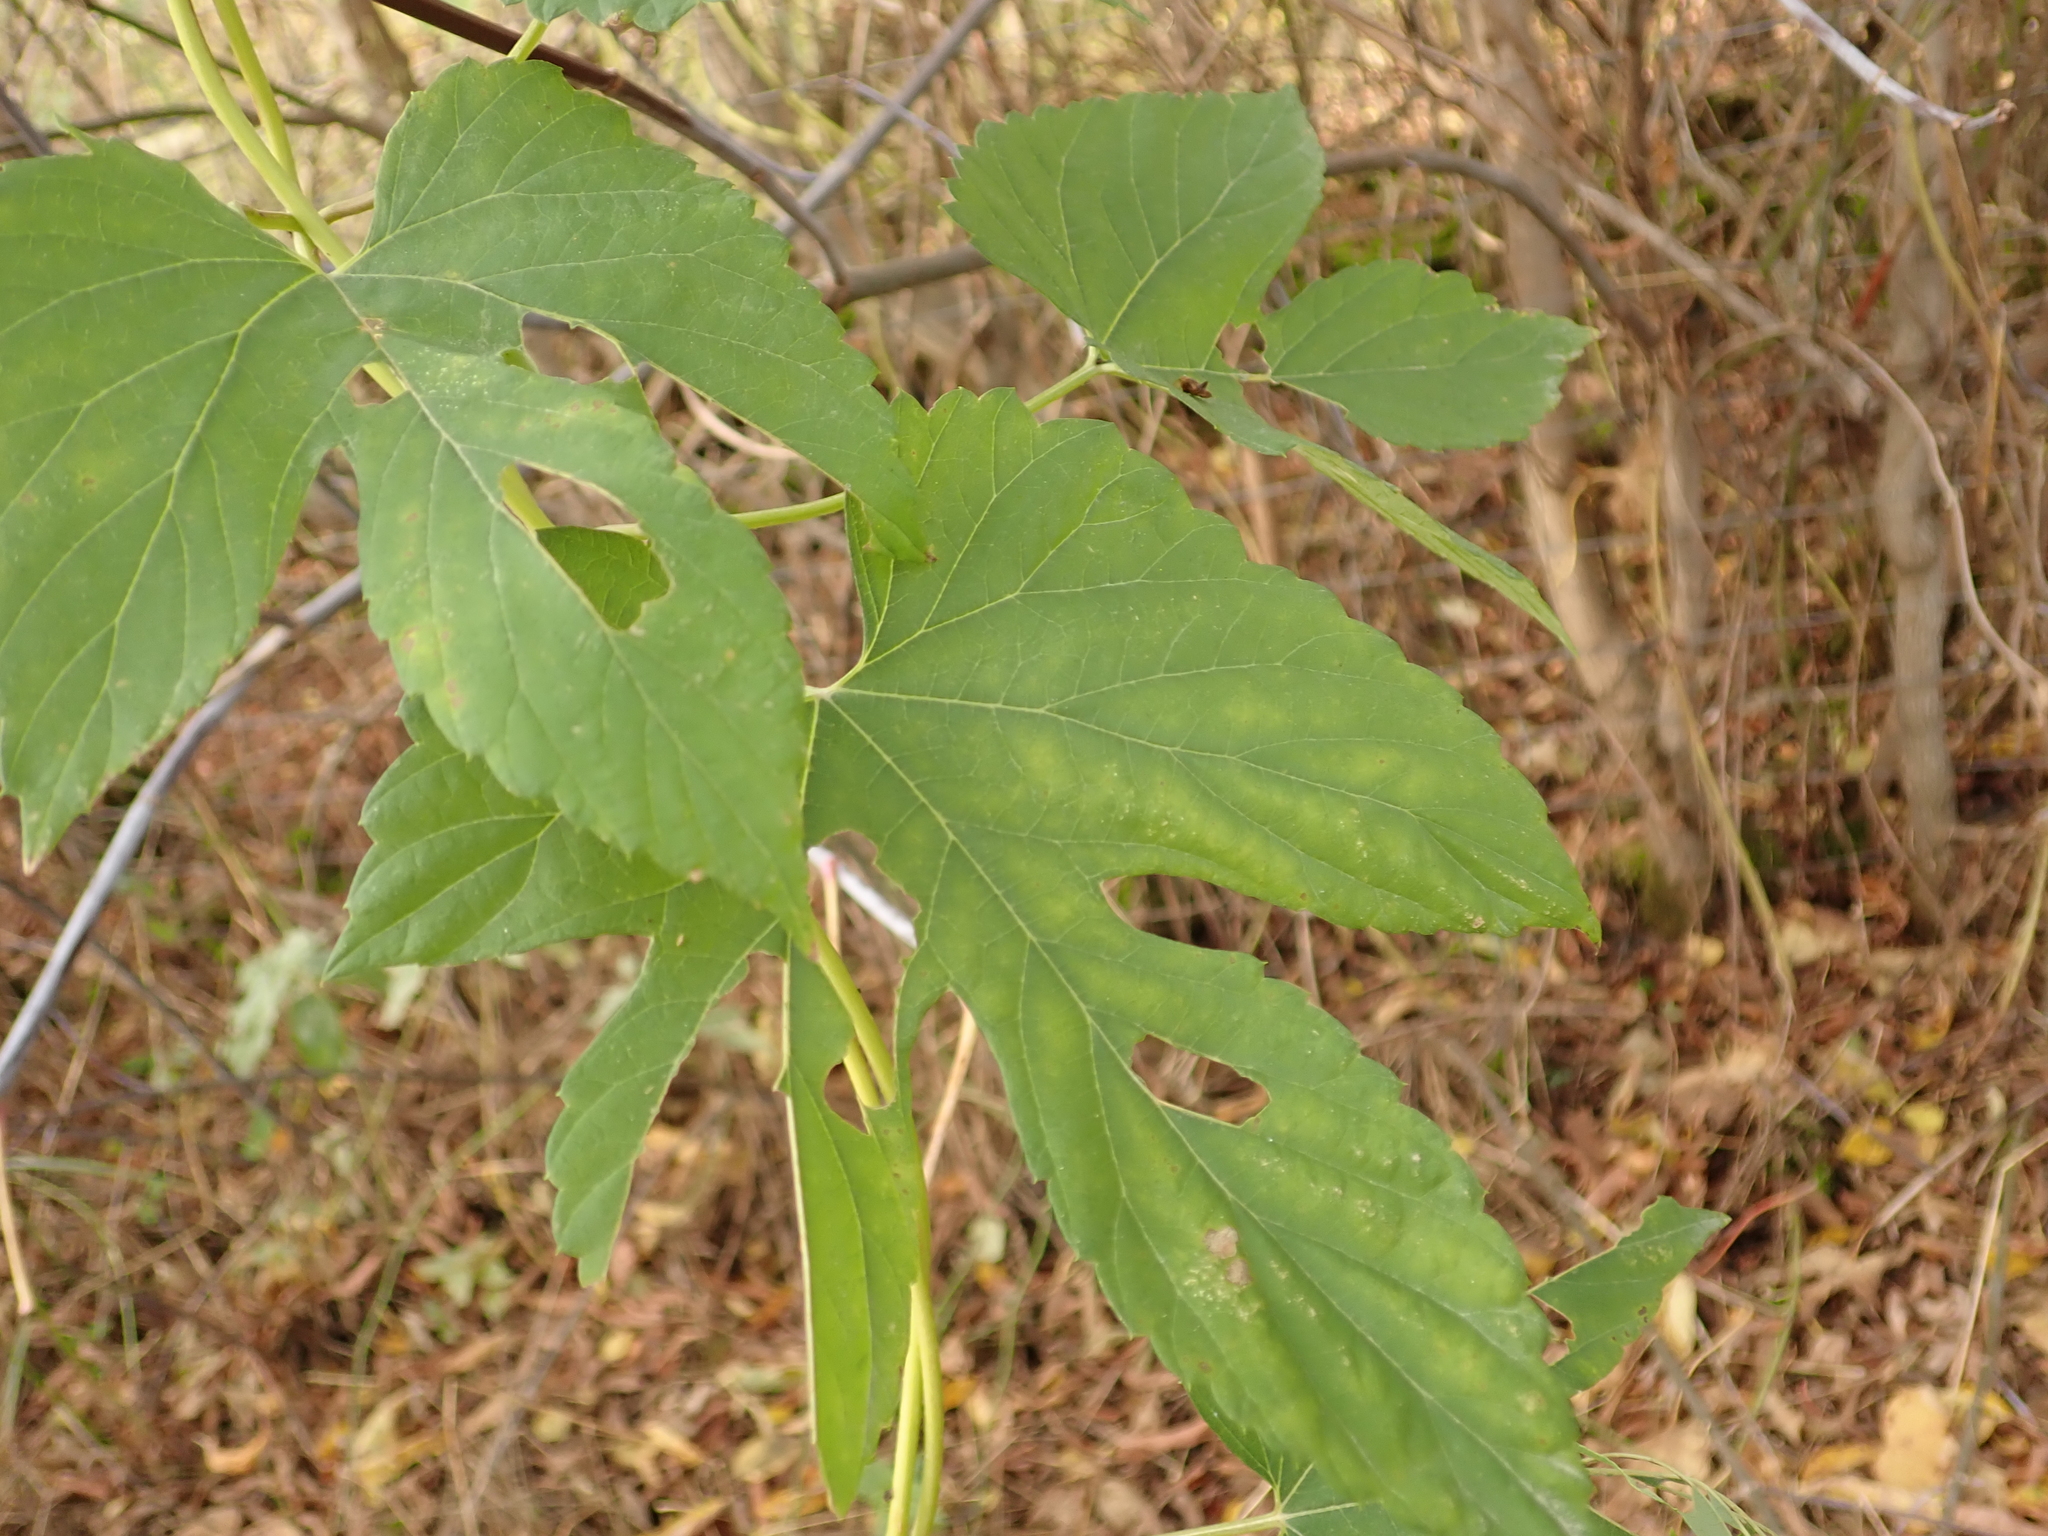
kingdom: Plantae
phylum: Tracheophyta
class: Magnoliopsida
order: Rosales
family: Cannabaceae
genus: Humulus
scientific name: Humulus lupulus
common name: Hop
